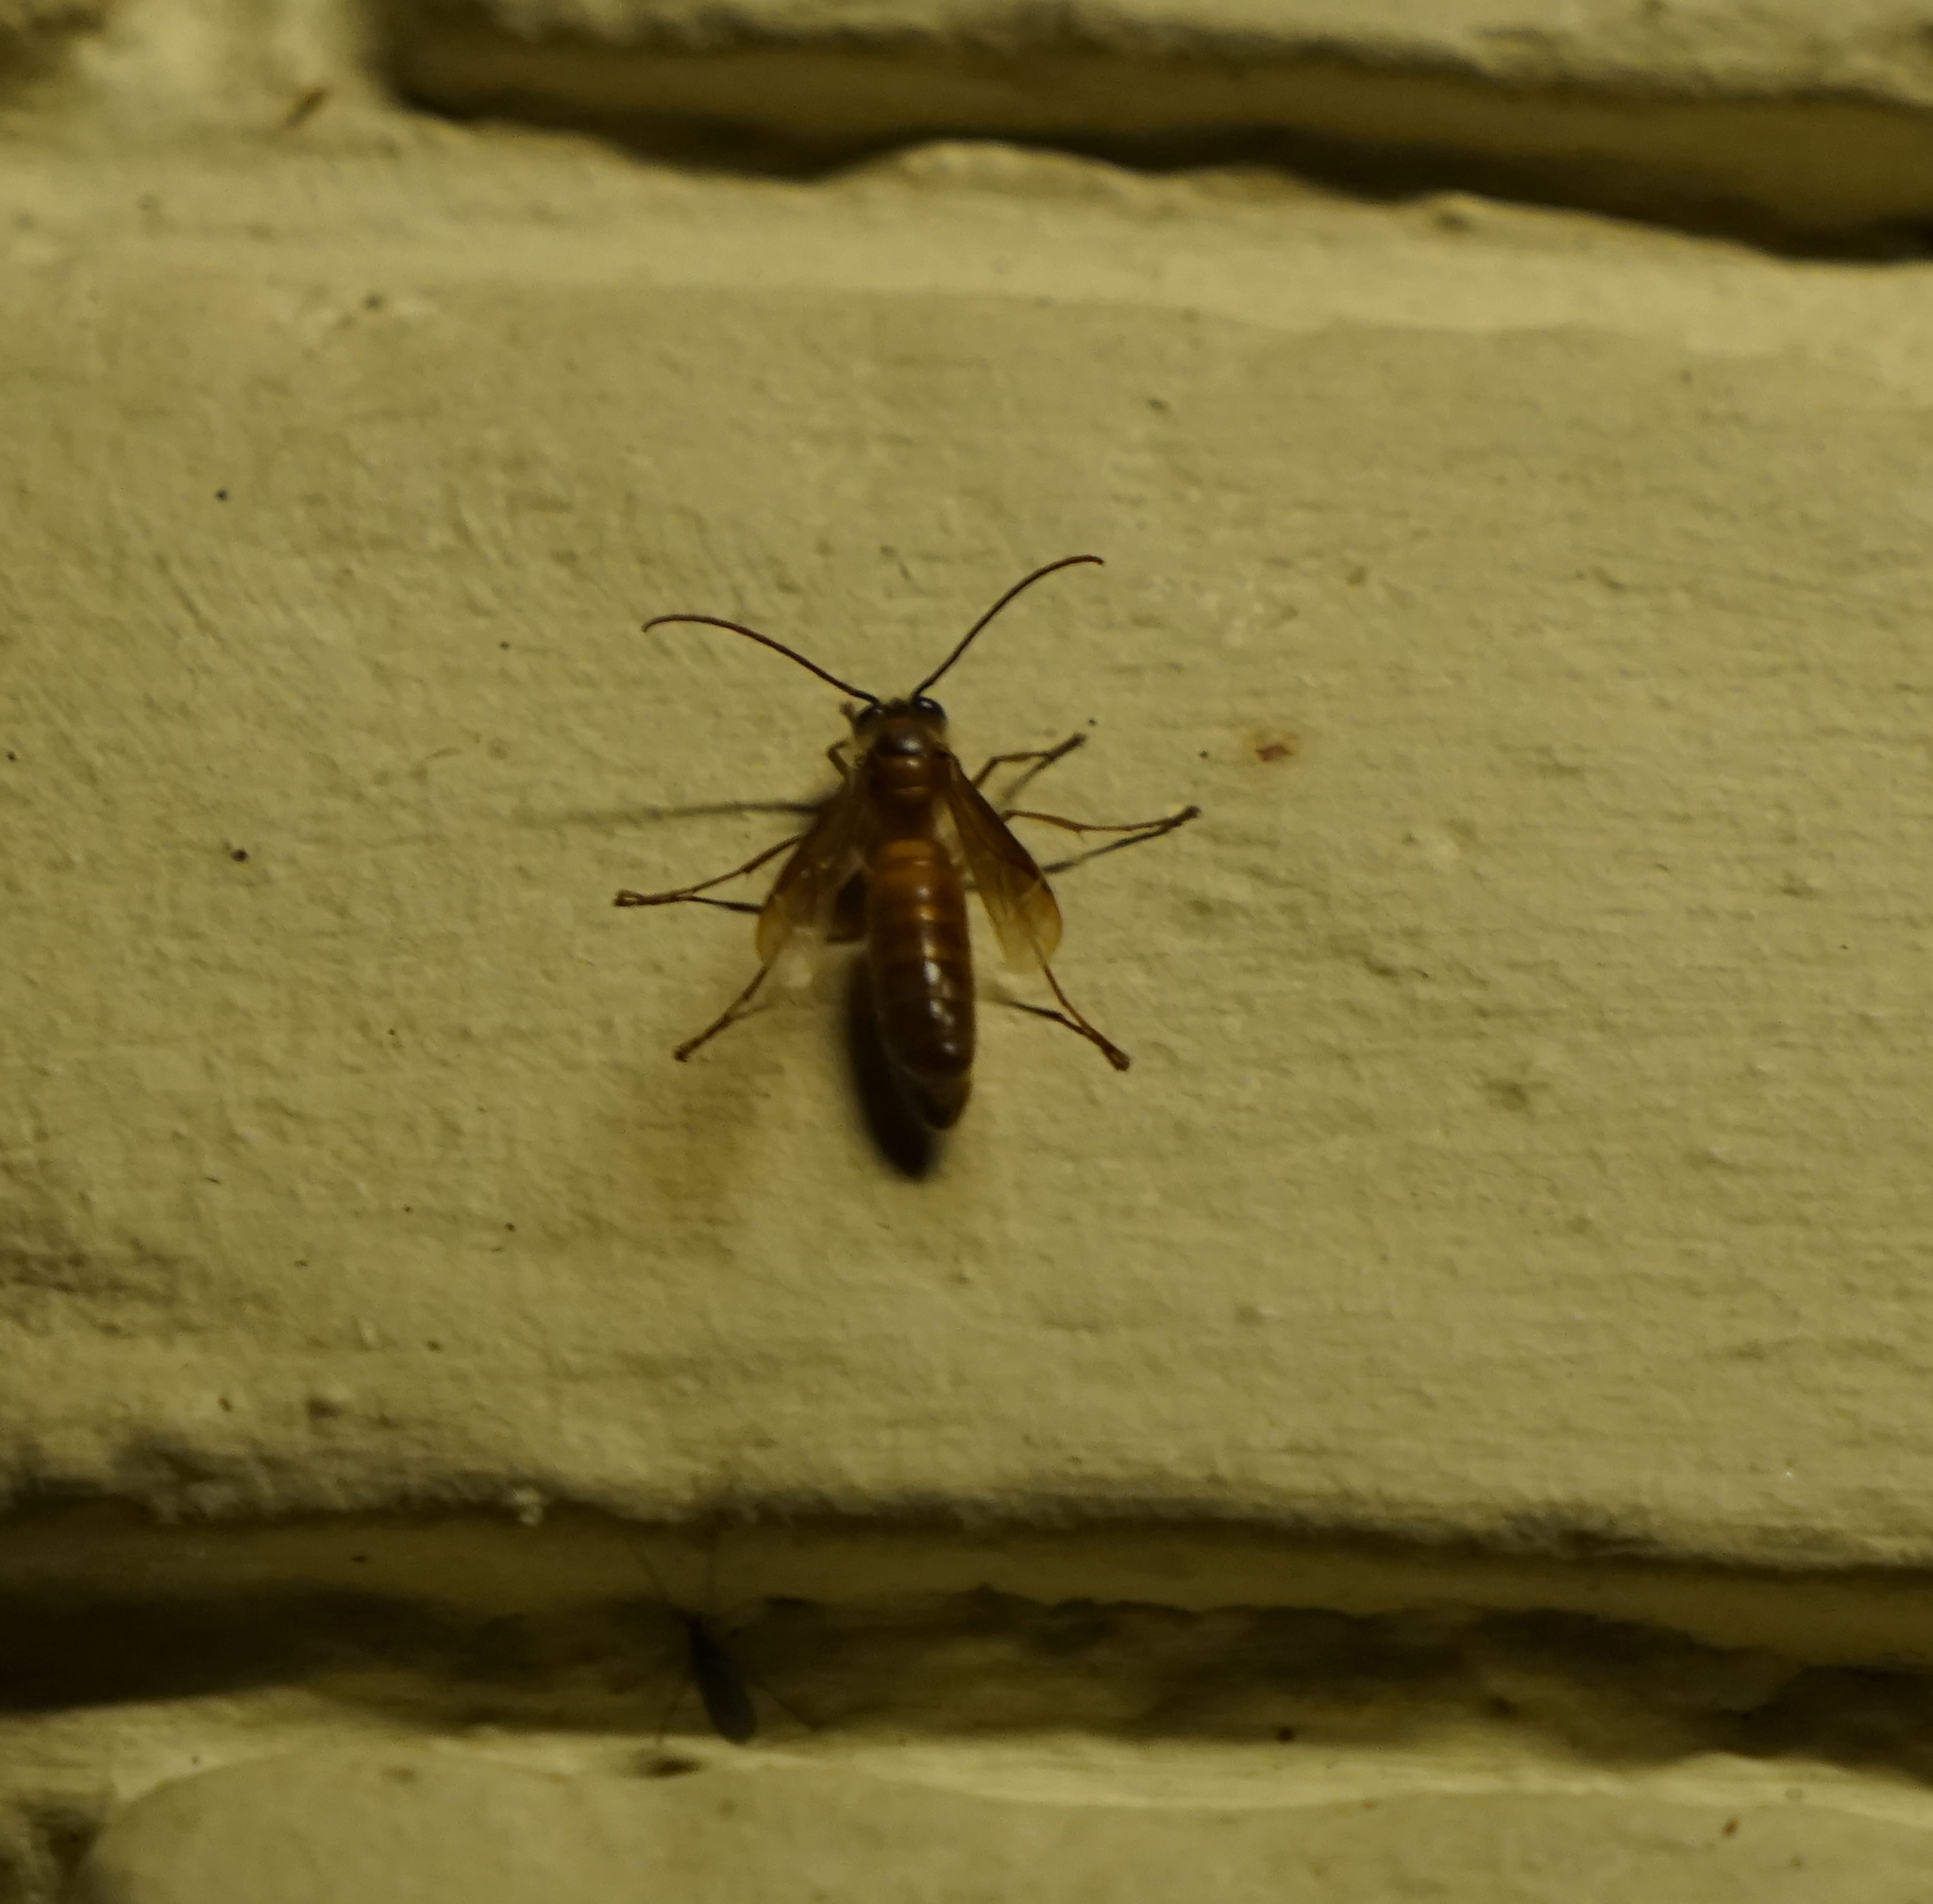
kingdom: Animalia
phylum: Arthropoda
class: Insecta
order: Hymenoptera
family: Vespidae
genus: Provespa
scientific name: Provespa
